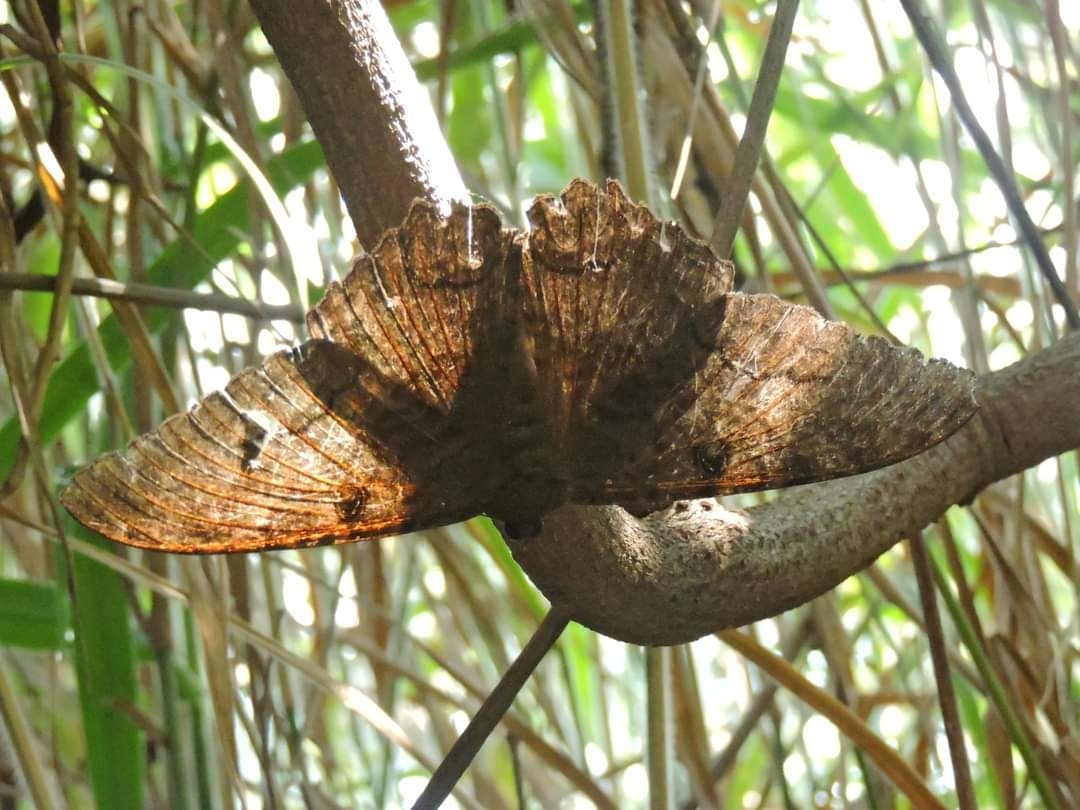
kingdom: Animalia
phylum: Arthropoda
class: Insecta
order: Lepidoptera
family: Erebidae
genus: Ascalapha
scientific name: Ascalapha odorata
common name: Black witch
